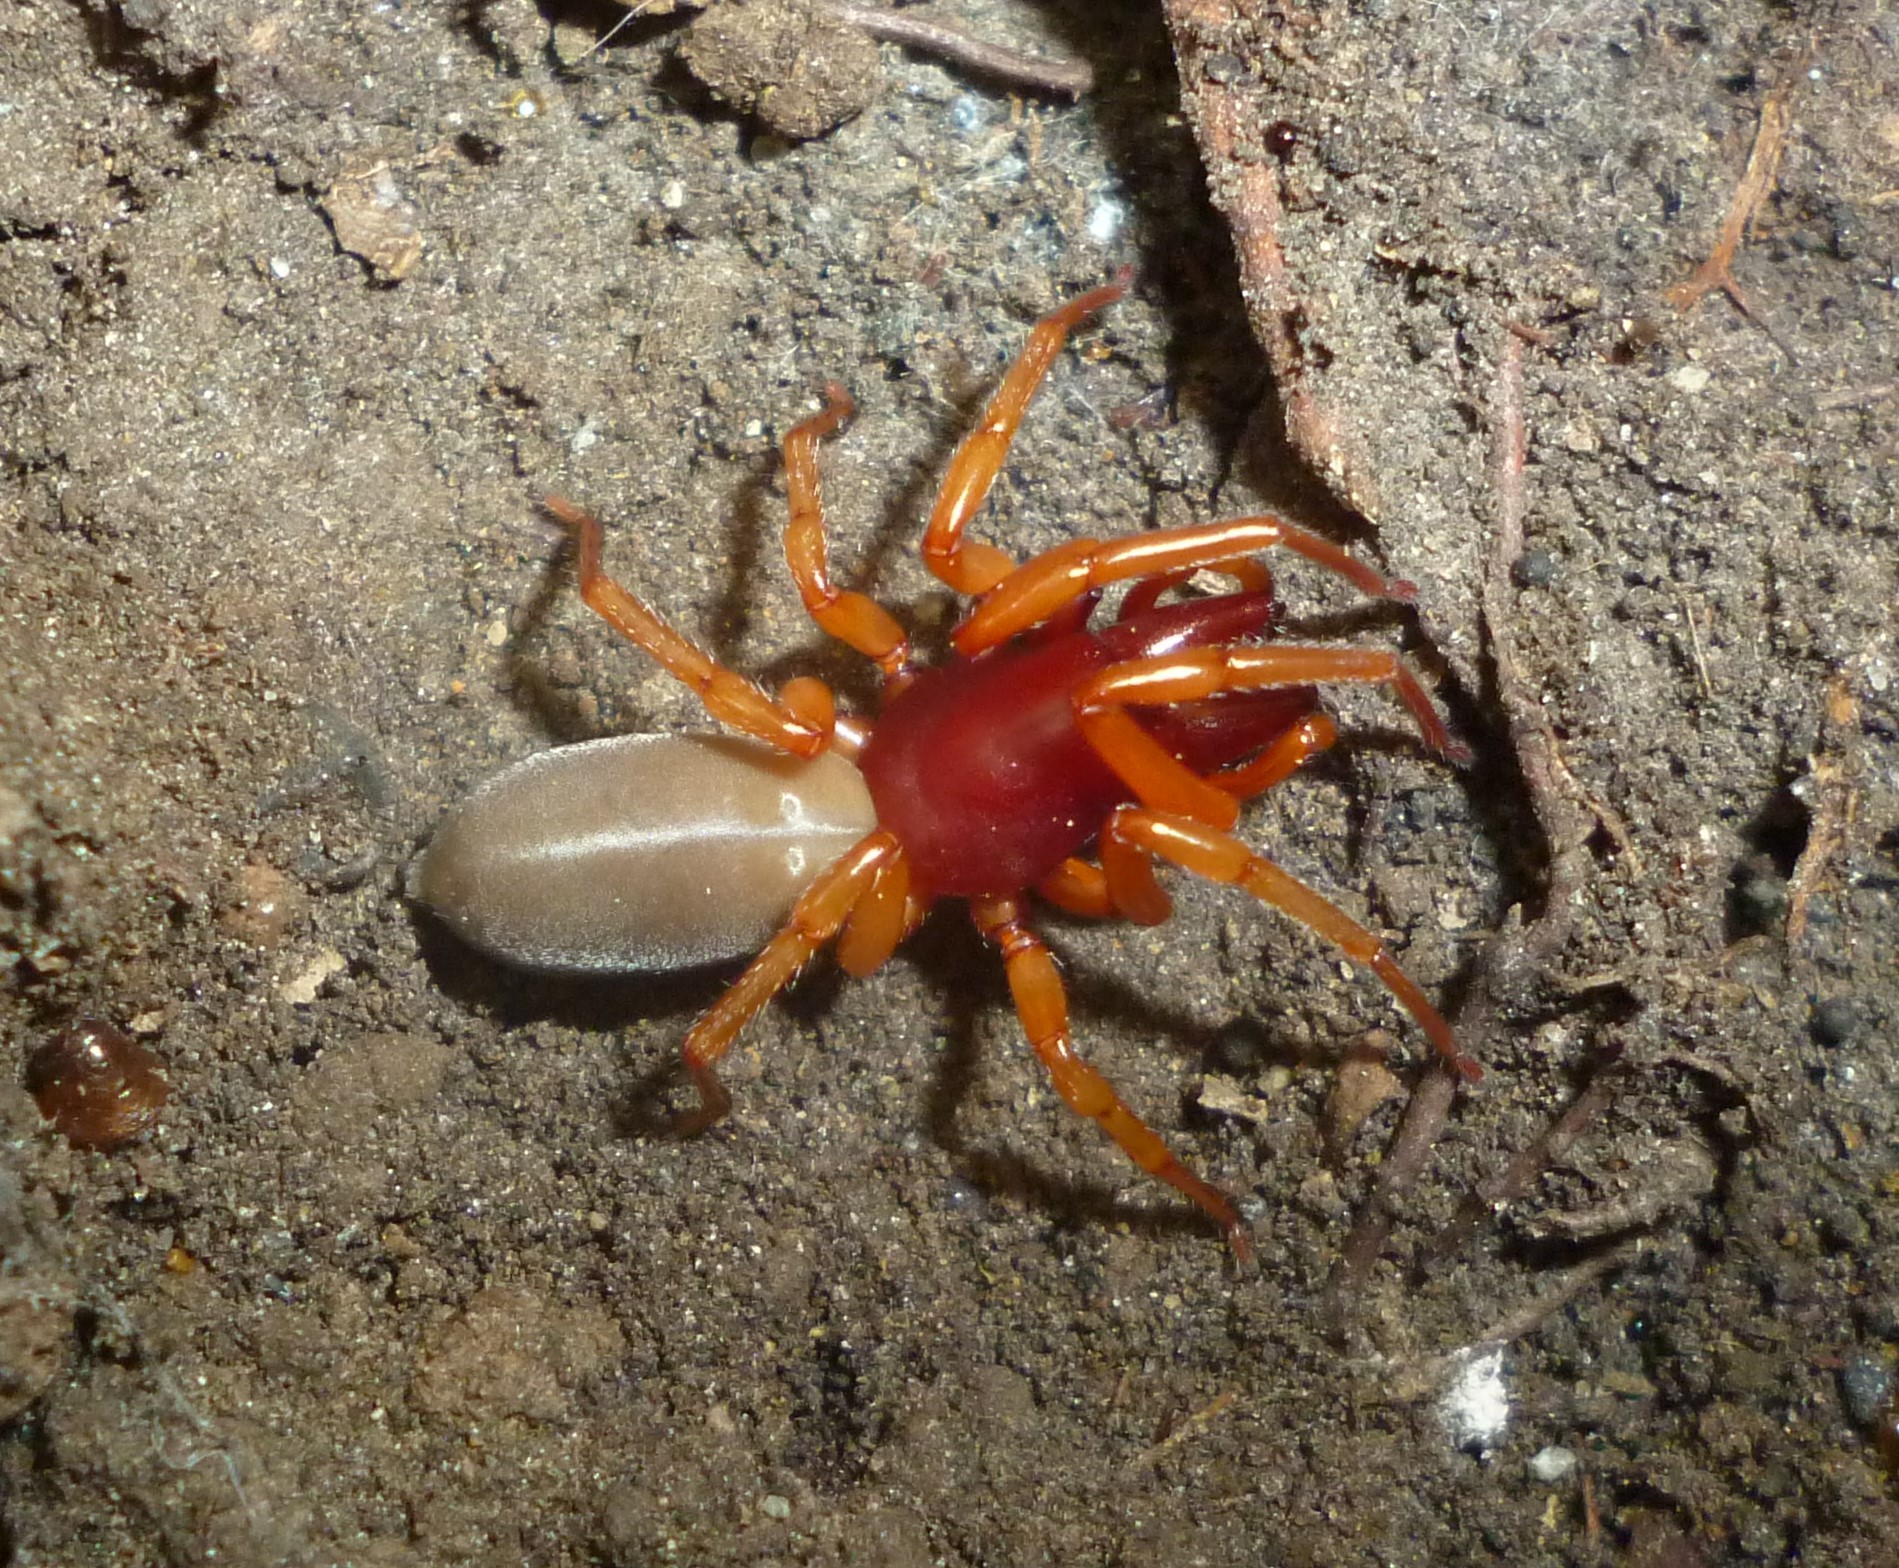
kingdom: Animalia
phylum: Arthropoda
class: Arachnida
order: Araneae
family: Dysderidae
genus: Dysdera
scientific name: Dysdera crocata
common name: Woodlouse spider
